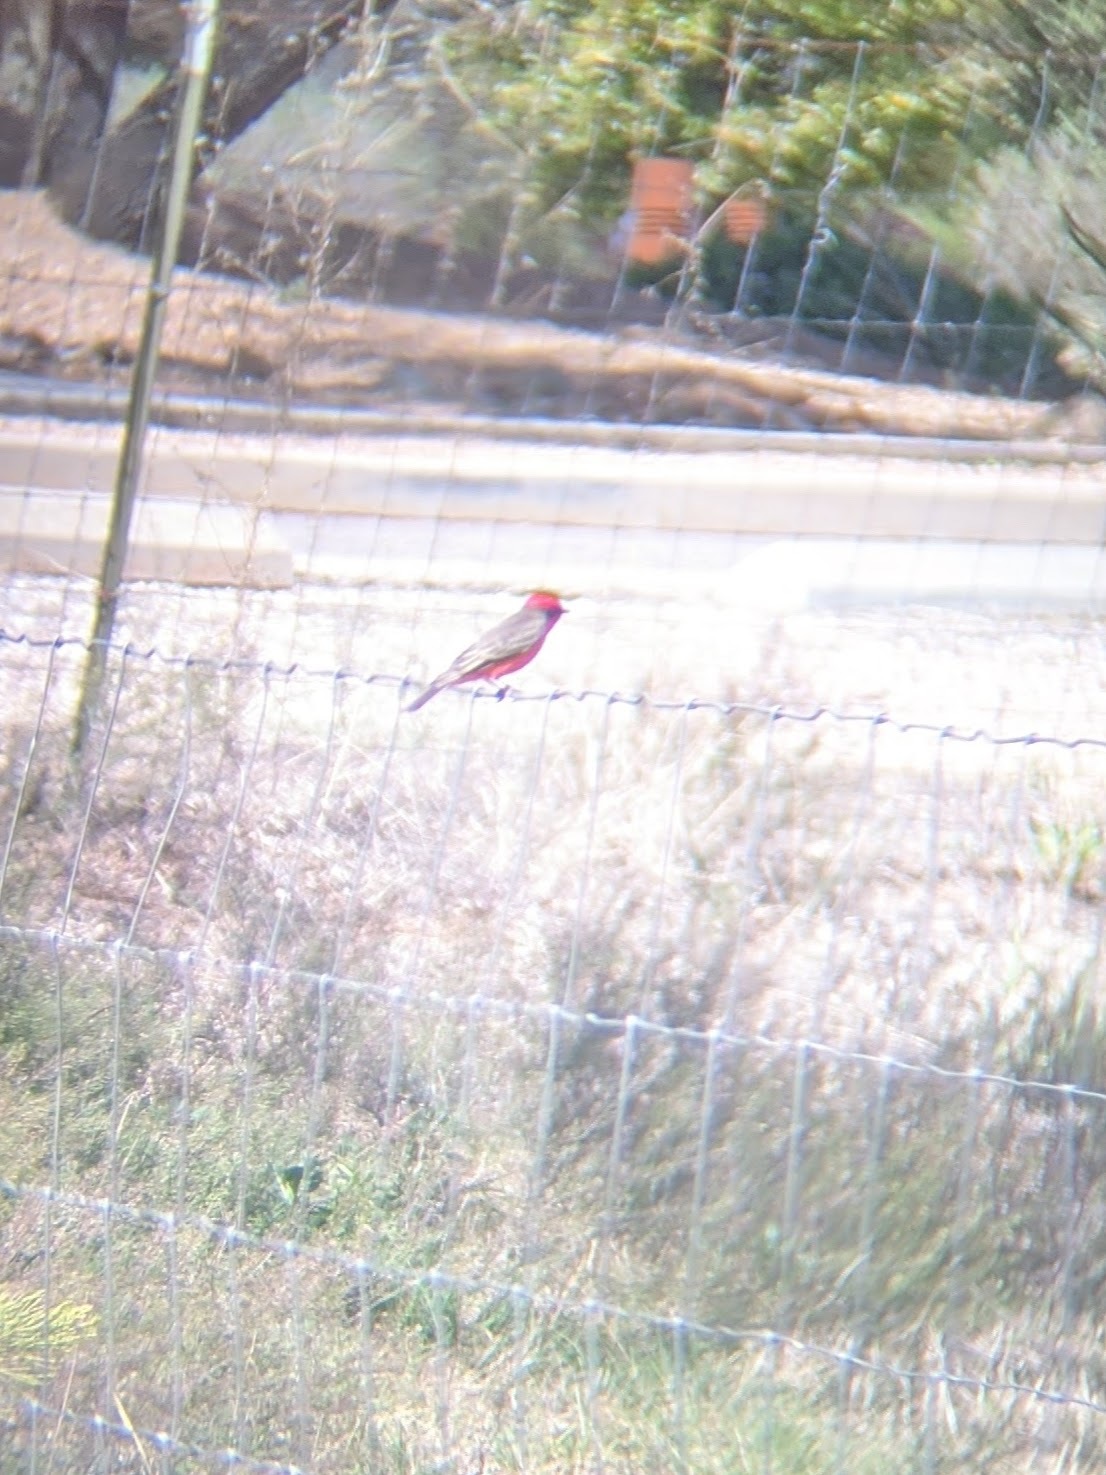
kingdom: Animalia
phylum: Chordata
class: Aves
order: Passeriformes
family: Tyrannidae
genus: Pyrocephalus
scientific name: Pyrocephalus rubinus
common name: Vermilion flycatcher
